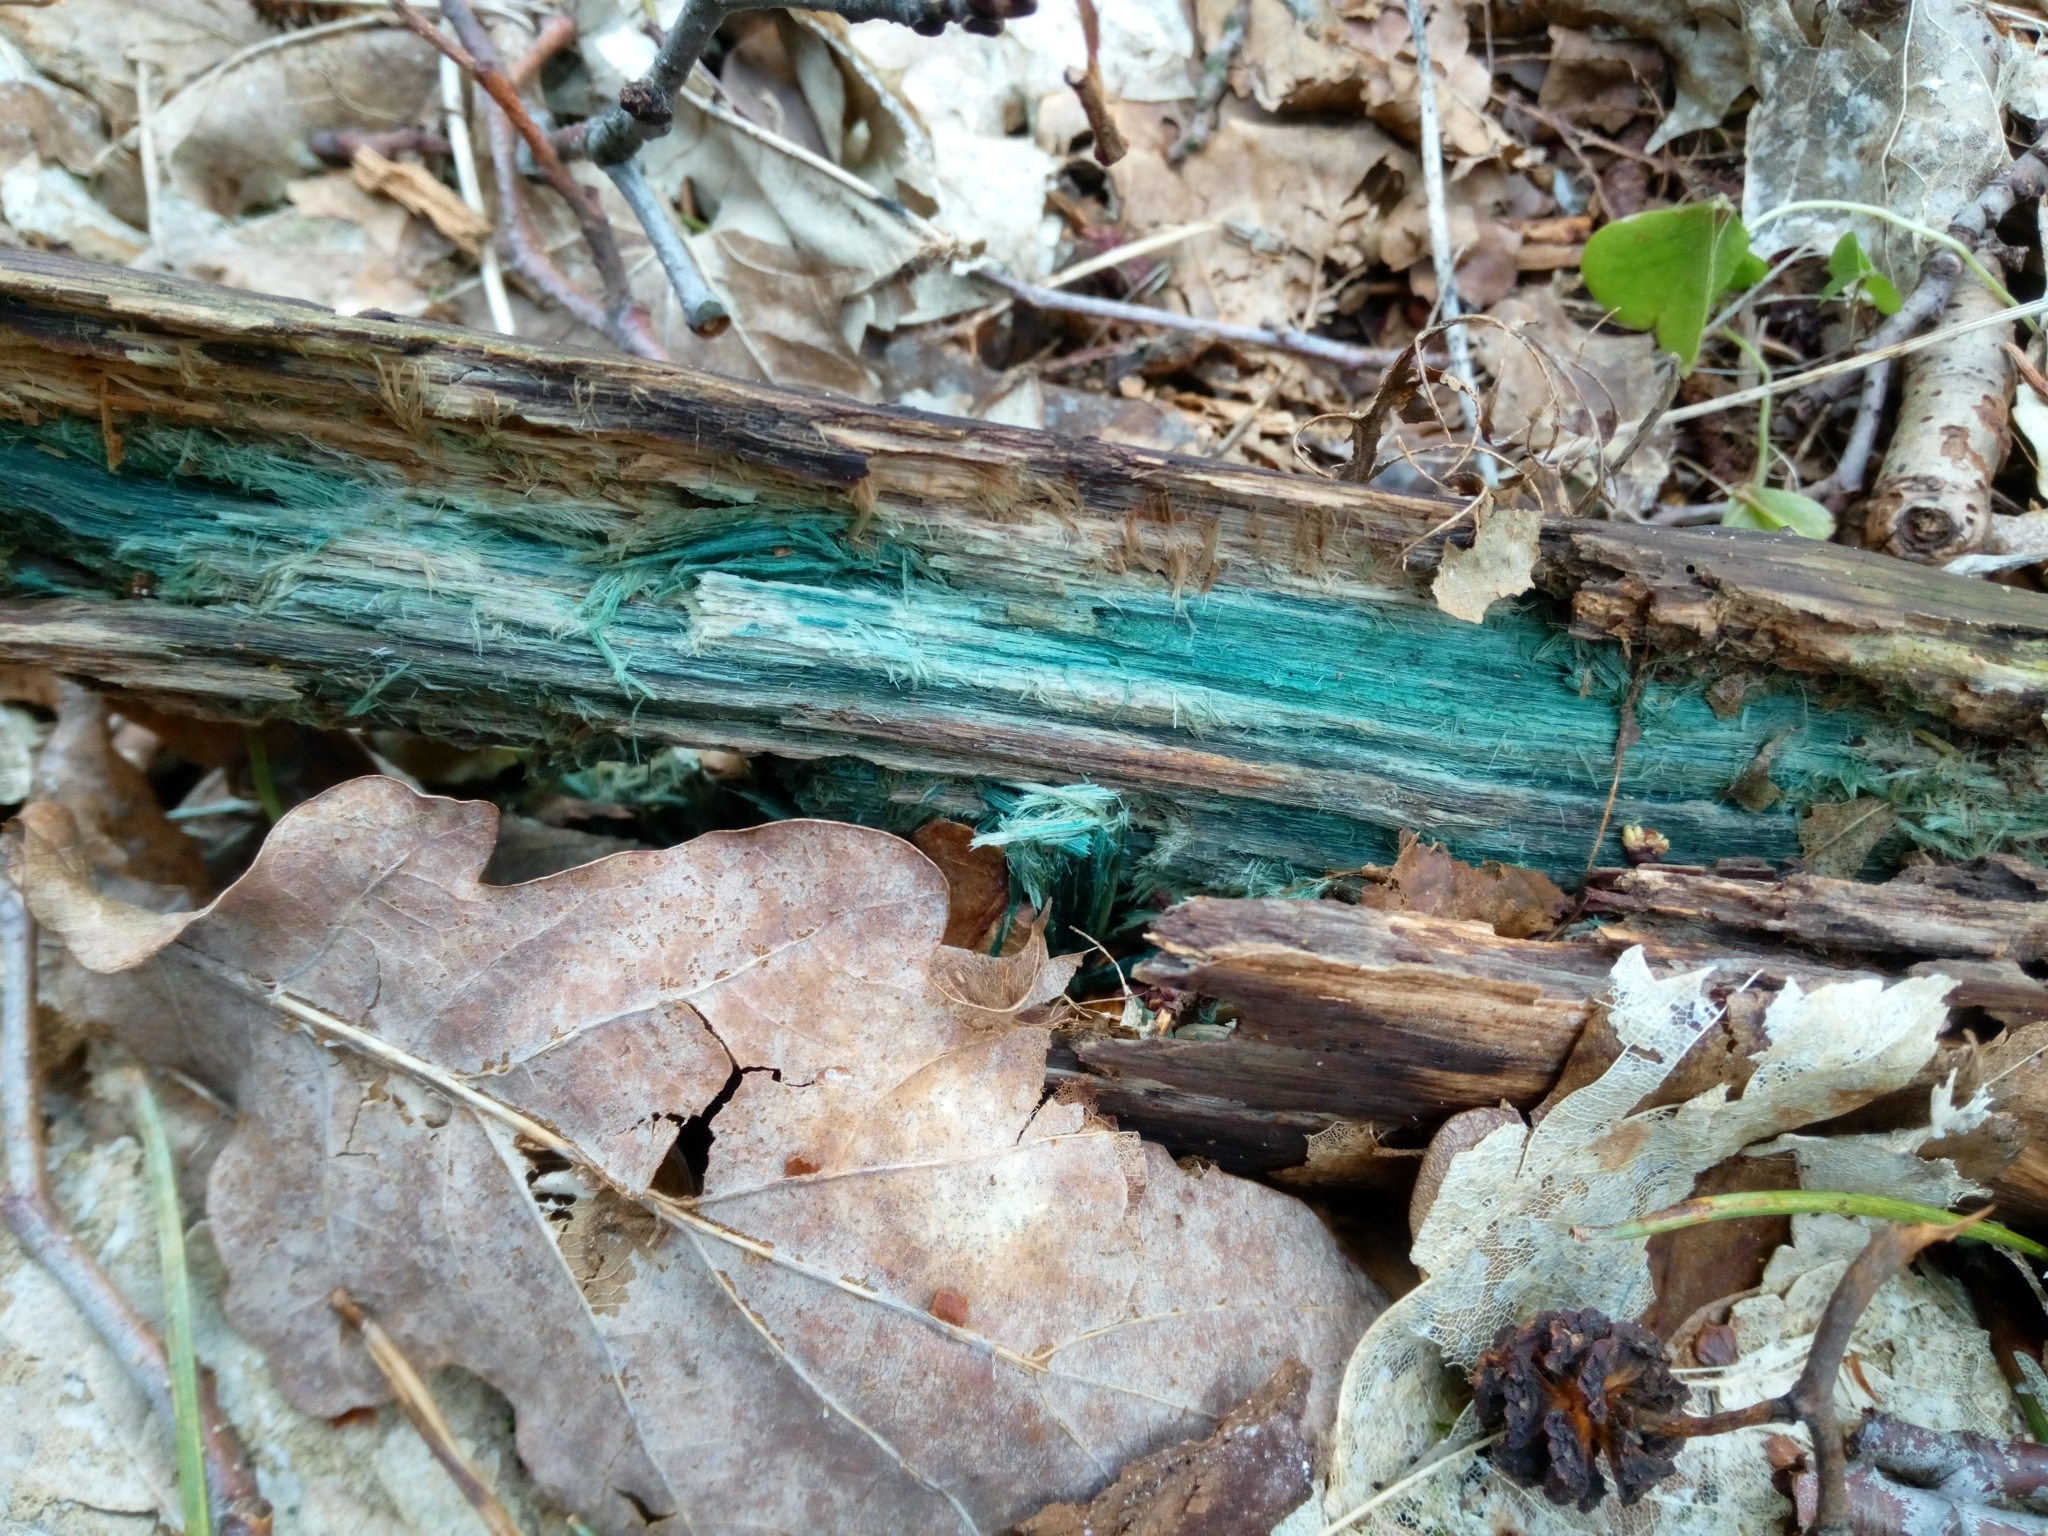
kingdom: Fungi
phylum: Ascomycota
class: Leotiomycetes
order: Helotiales
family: Chlorociboriaceae
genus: Chlorociboria
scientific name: Chlorociboria
